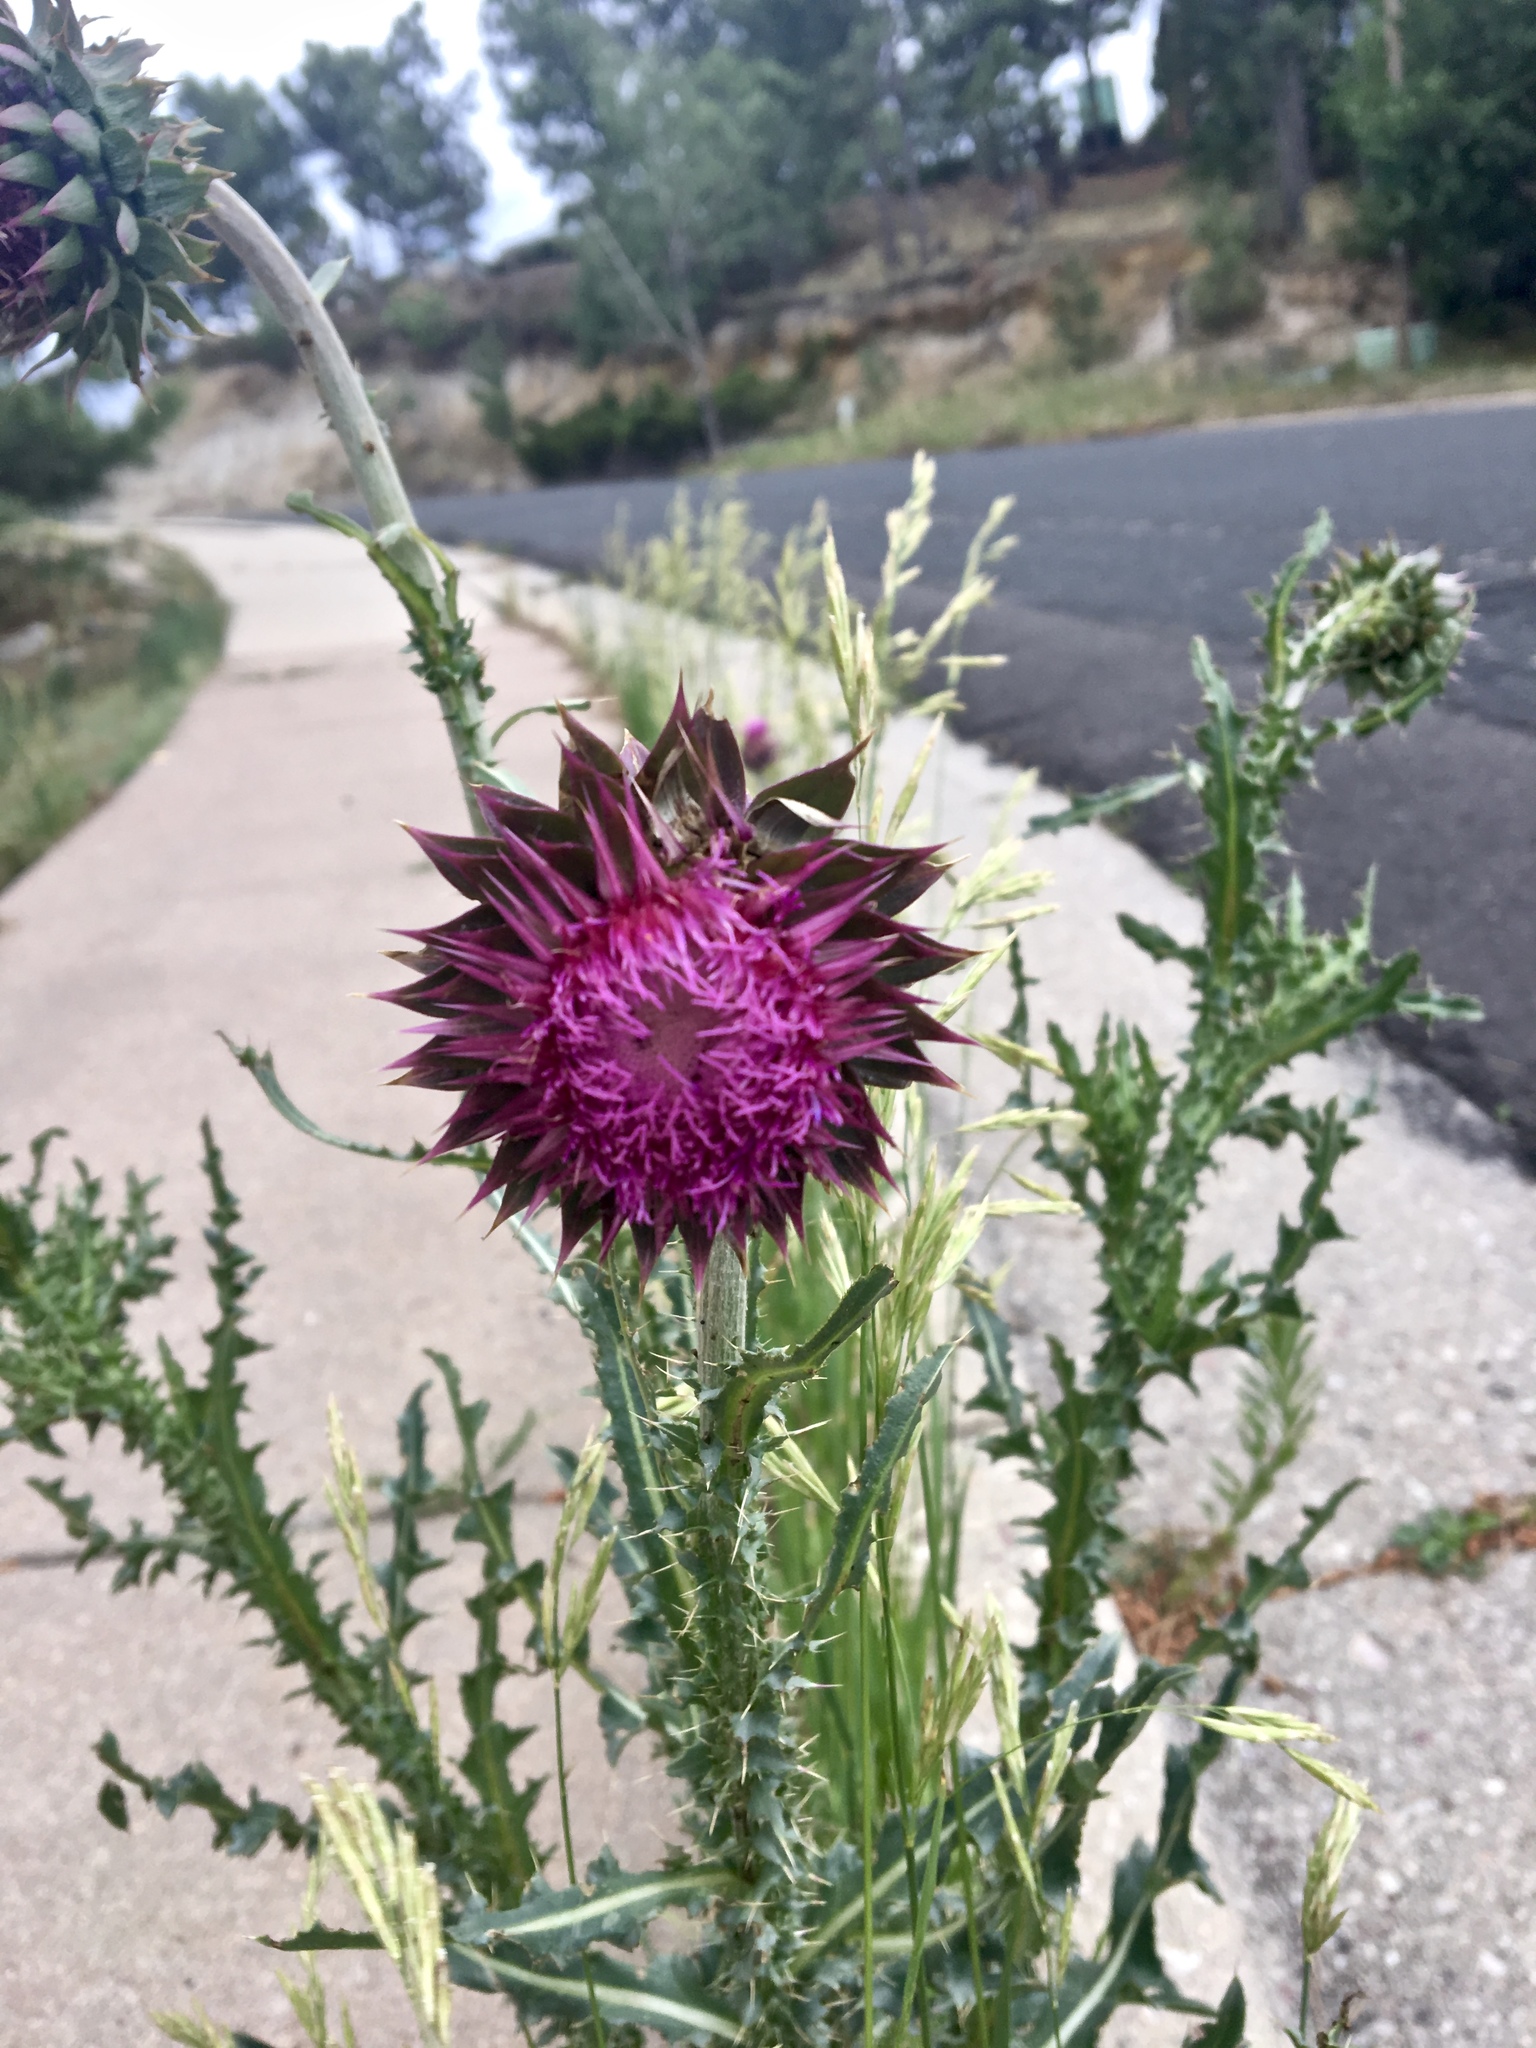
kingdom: Plantae
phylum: Tracheophyta
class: Magnoliopsida
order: Asterales
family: Asteraceae
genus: Carduus
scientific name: Carduus nutans
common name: Musk thistle
